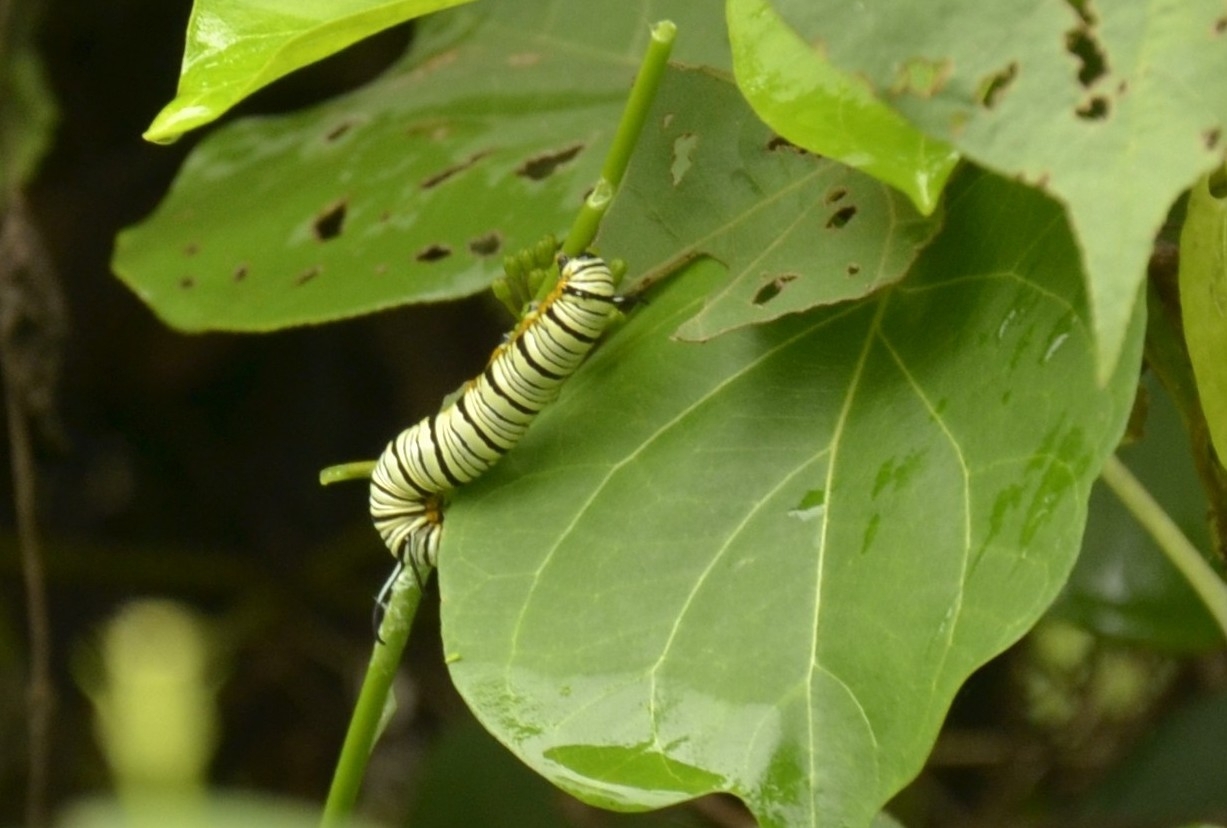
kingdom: Animalia
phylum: Arthropoda
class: Insecta
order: Lepidoptera
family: Nymphalidae
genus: Tirumala
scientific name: Tirumala limniace
